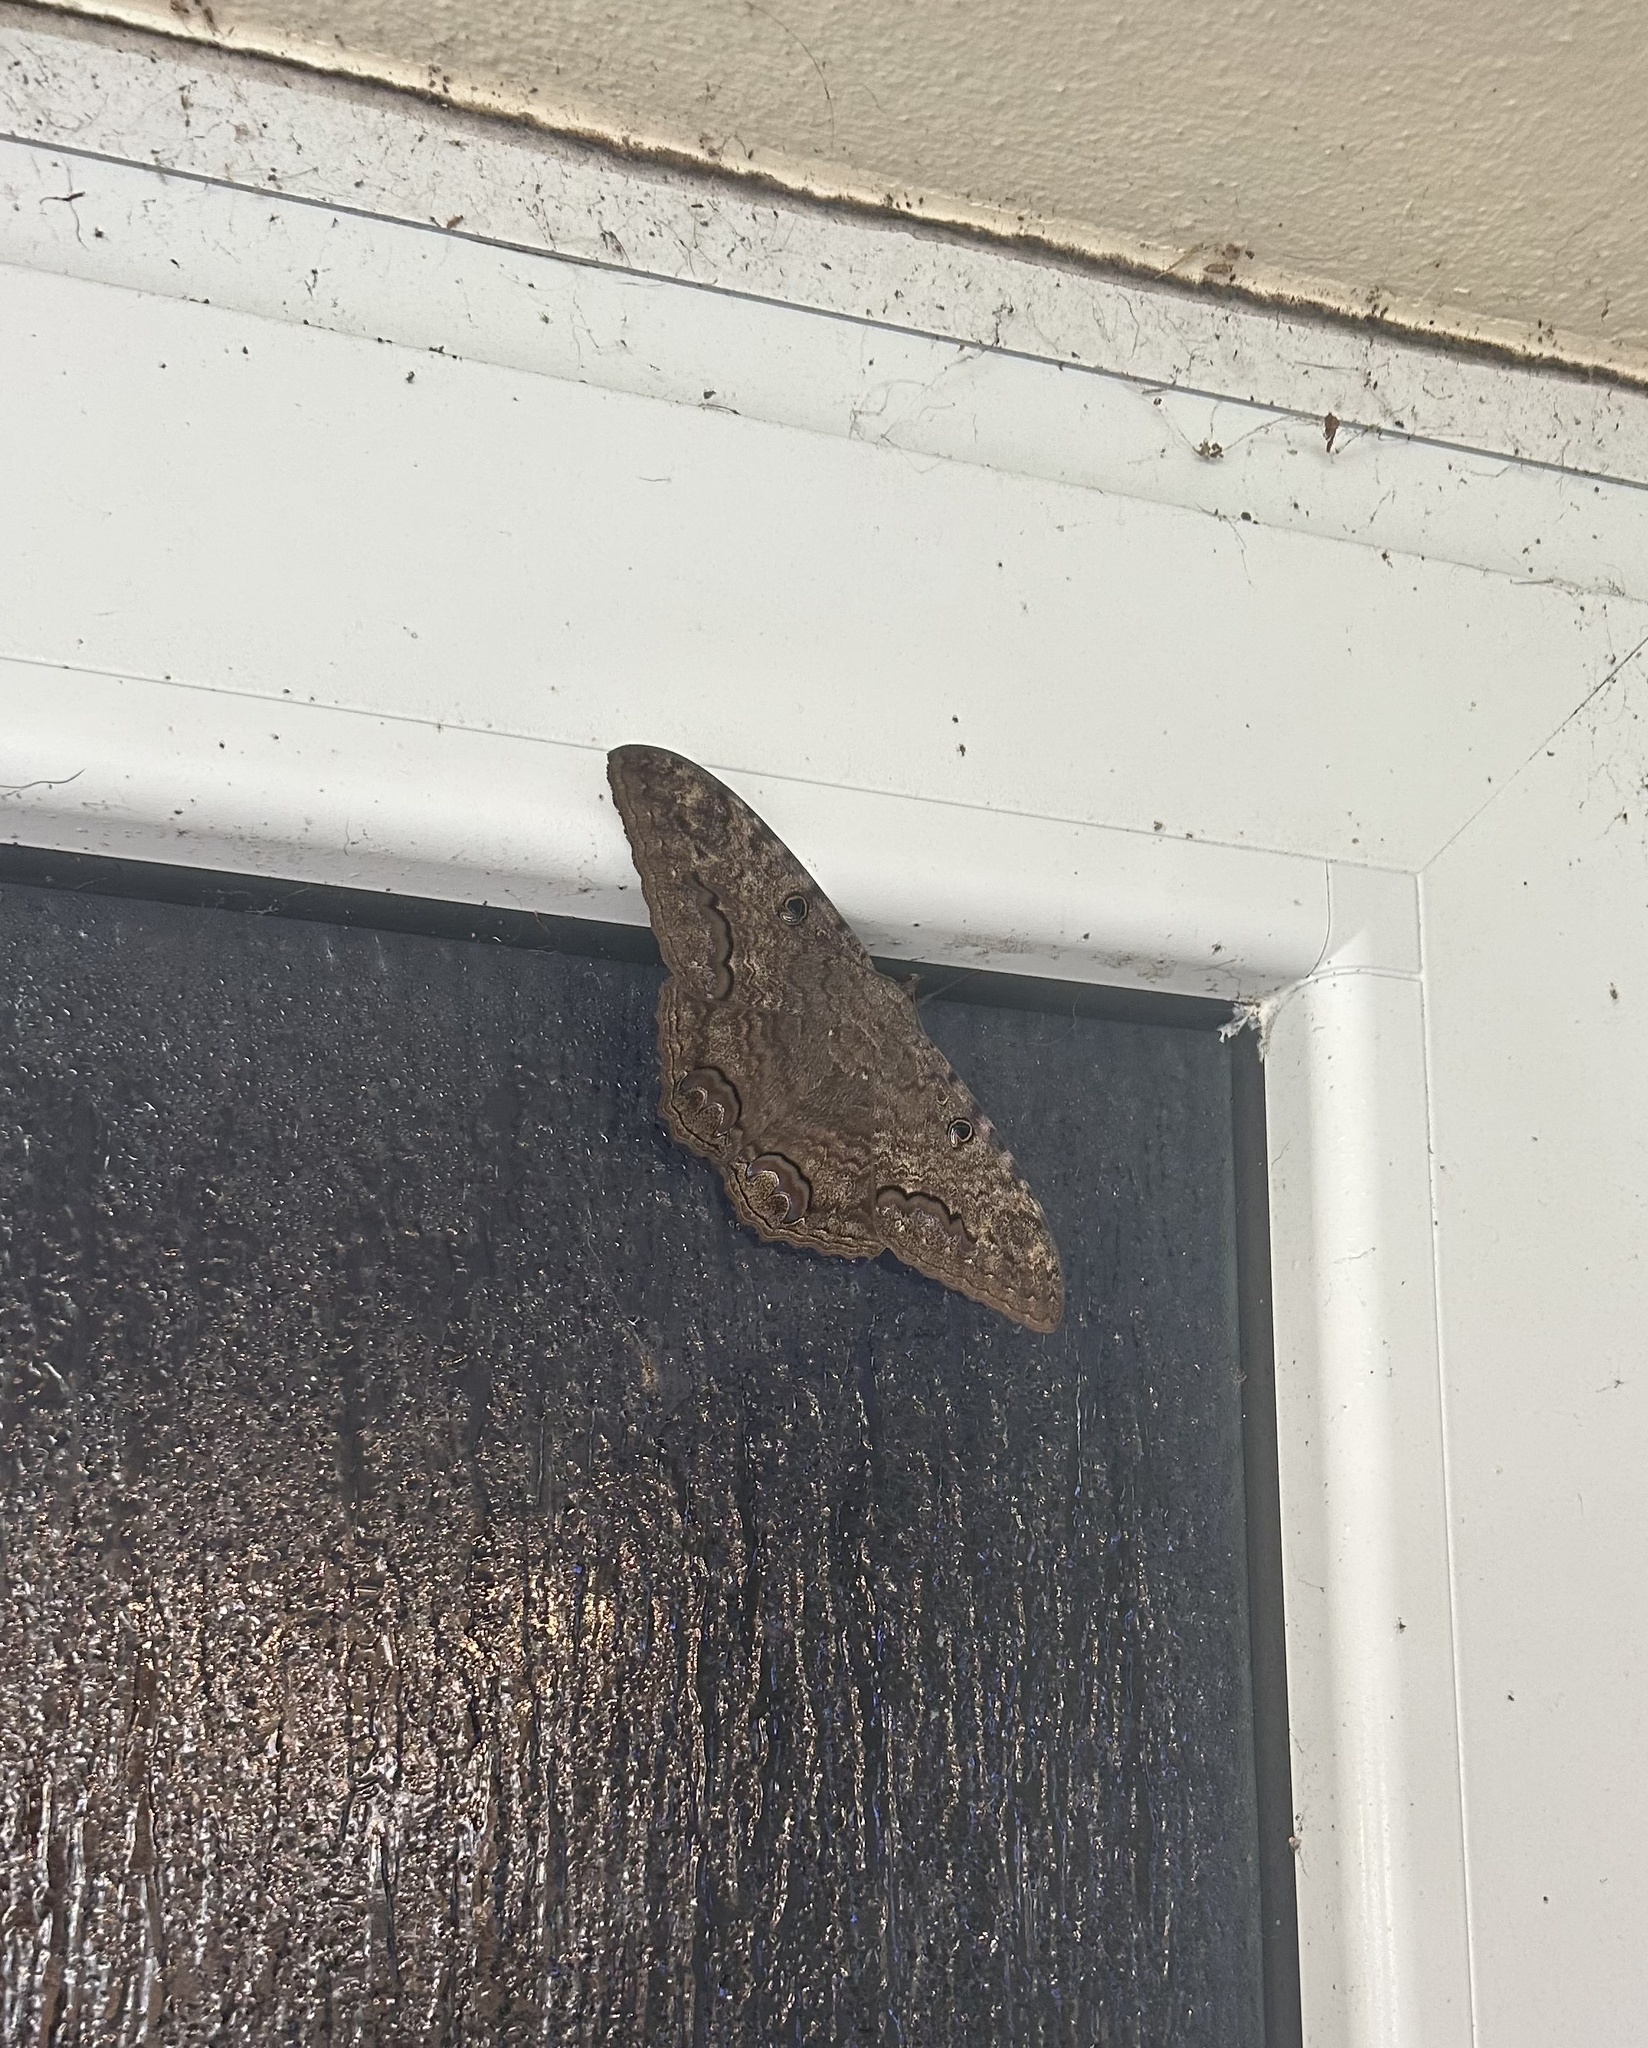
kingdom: Animalia
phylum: Arthropoda
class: Insecta
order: Lepidoptera
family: Erebidae
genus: Ascalapha
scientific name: Ascalapha odorata
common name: Black witch
